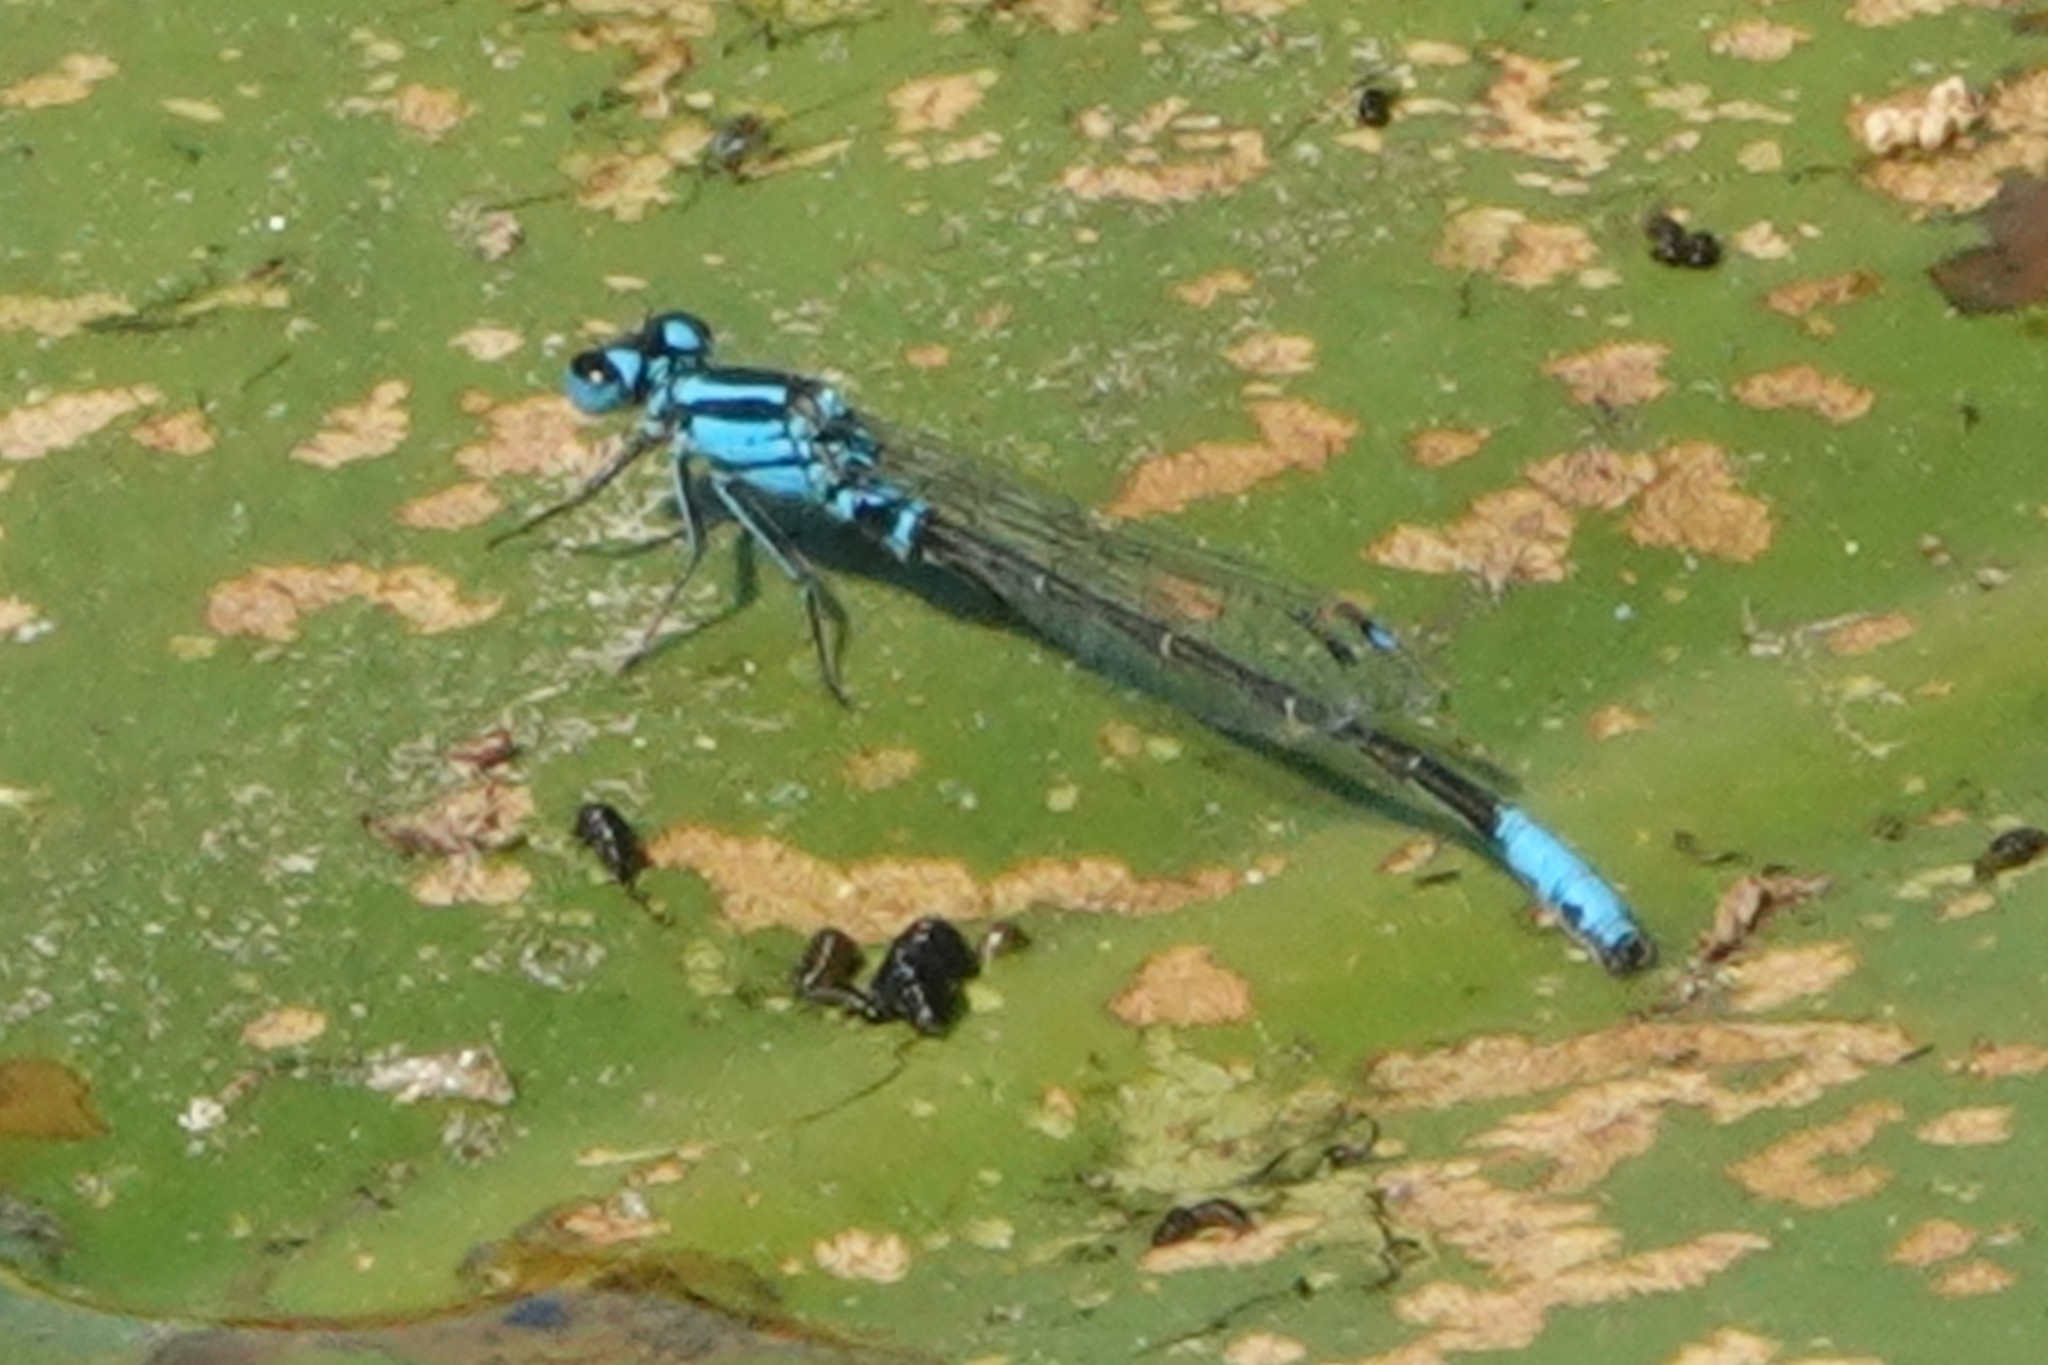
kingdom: Animalia
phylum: Arthropoda
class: Insecta
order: Odonata
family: Coenagrionidae
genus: Ischnura
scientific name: Ischnura kellicotti
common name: Lilypad forktail
